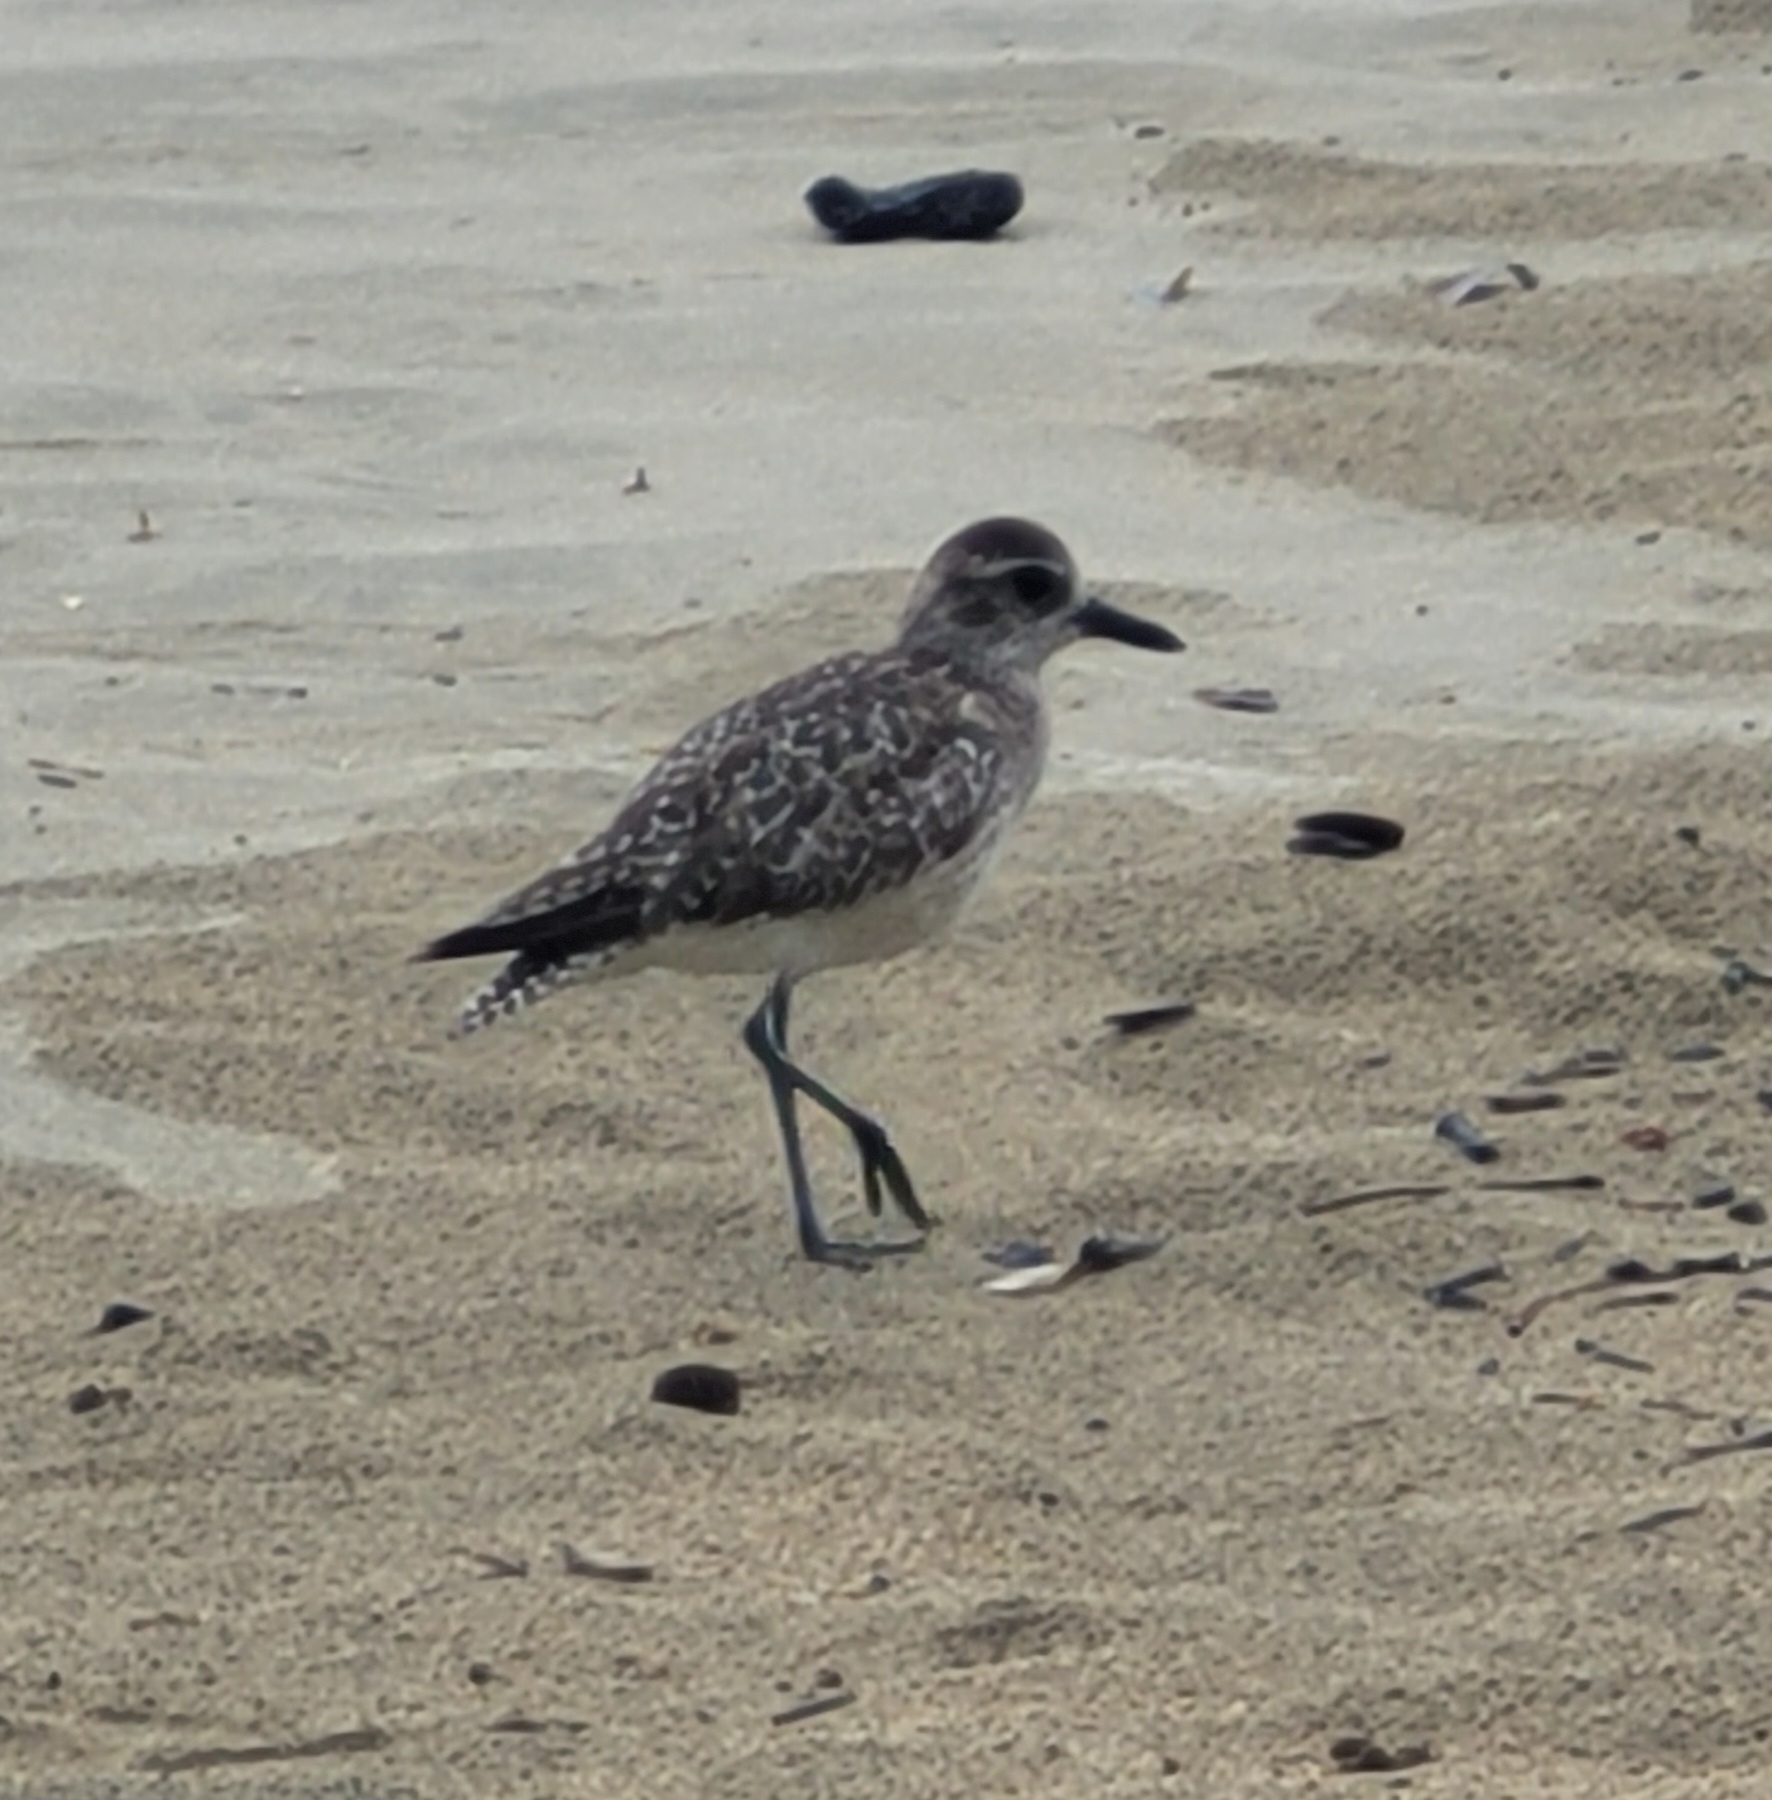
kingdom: Animalia
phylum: Chordata
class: Aves
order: Charadriiformes
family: Charadriidae
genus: Pluvialis
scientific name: Pluvialis squatarola
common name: Grey plover
